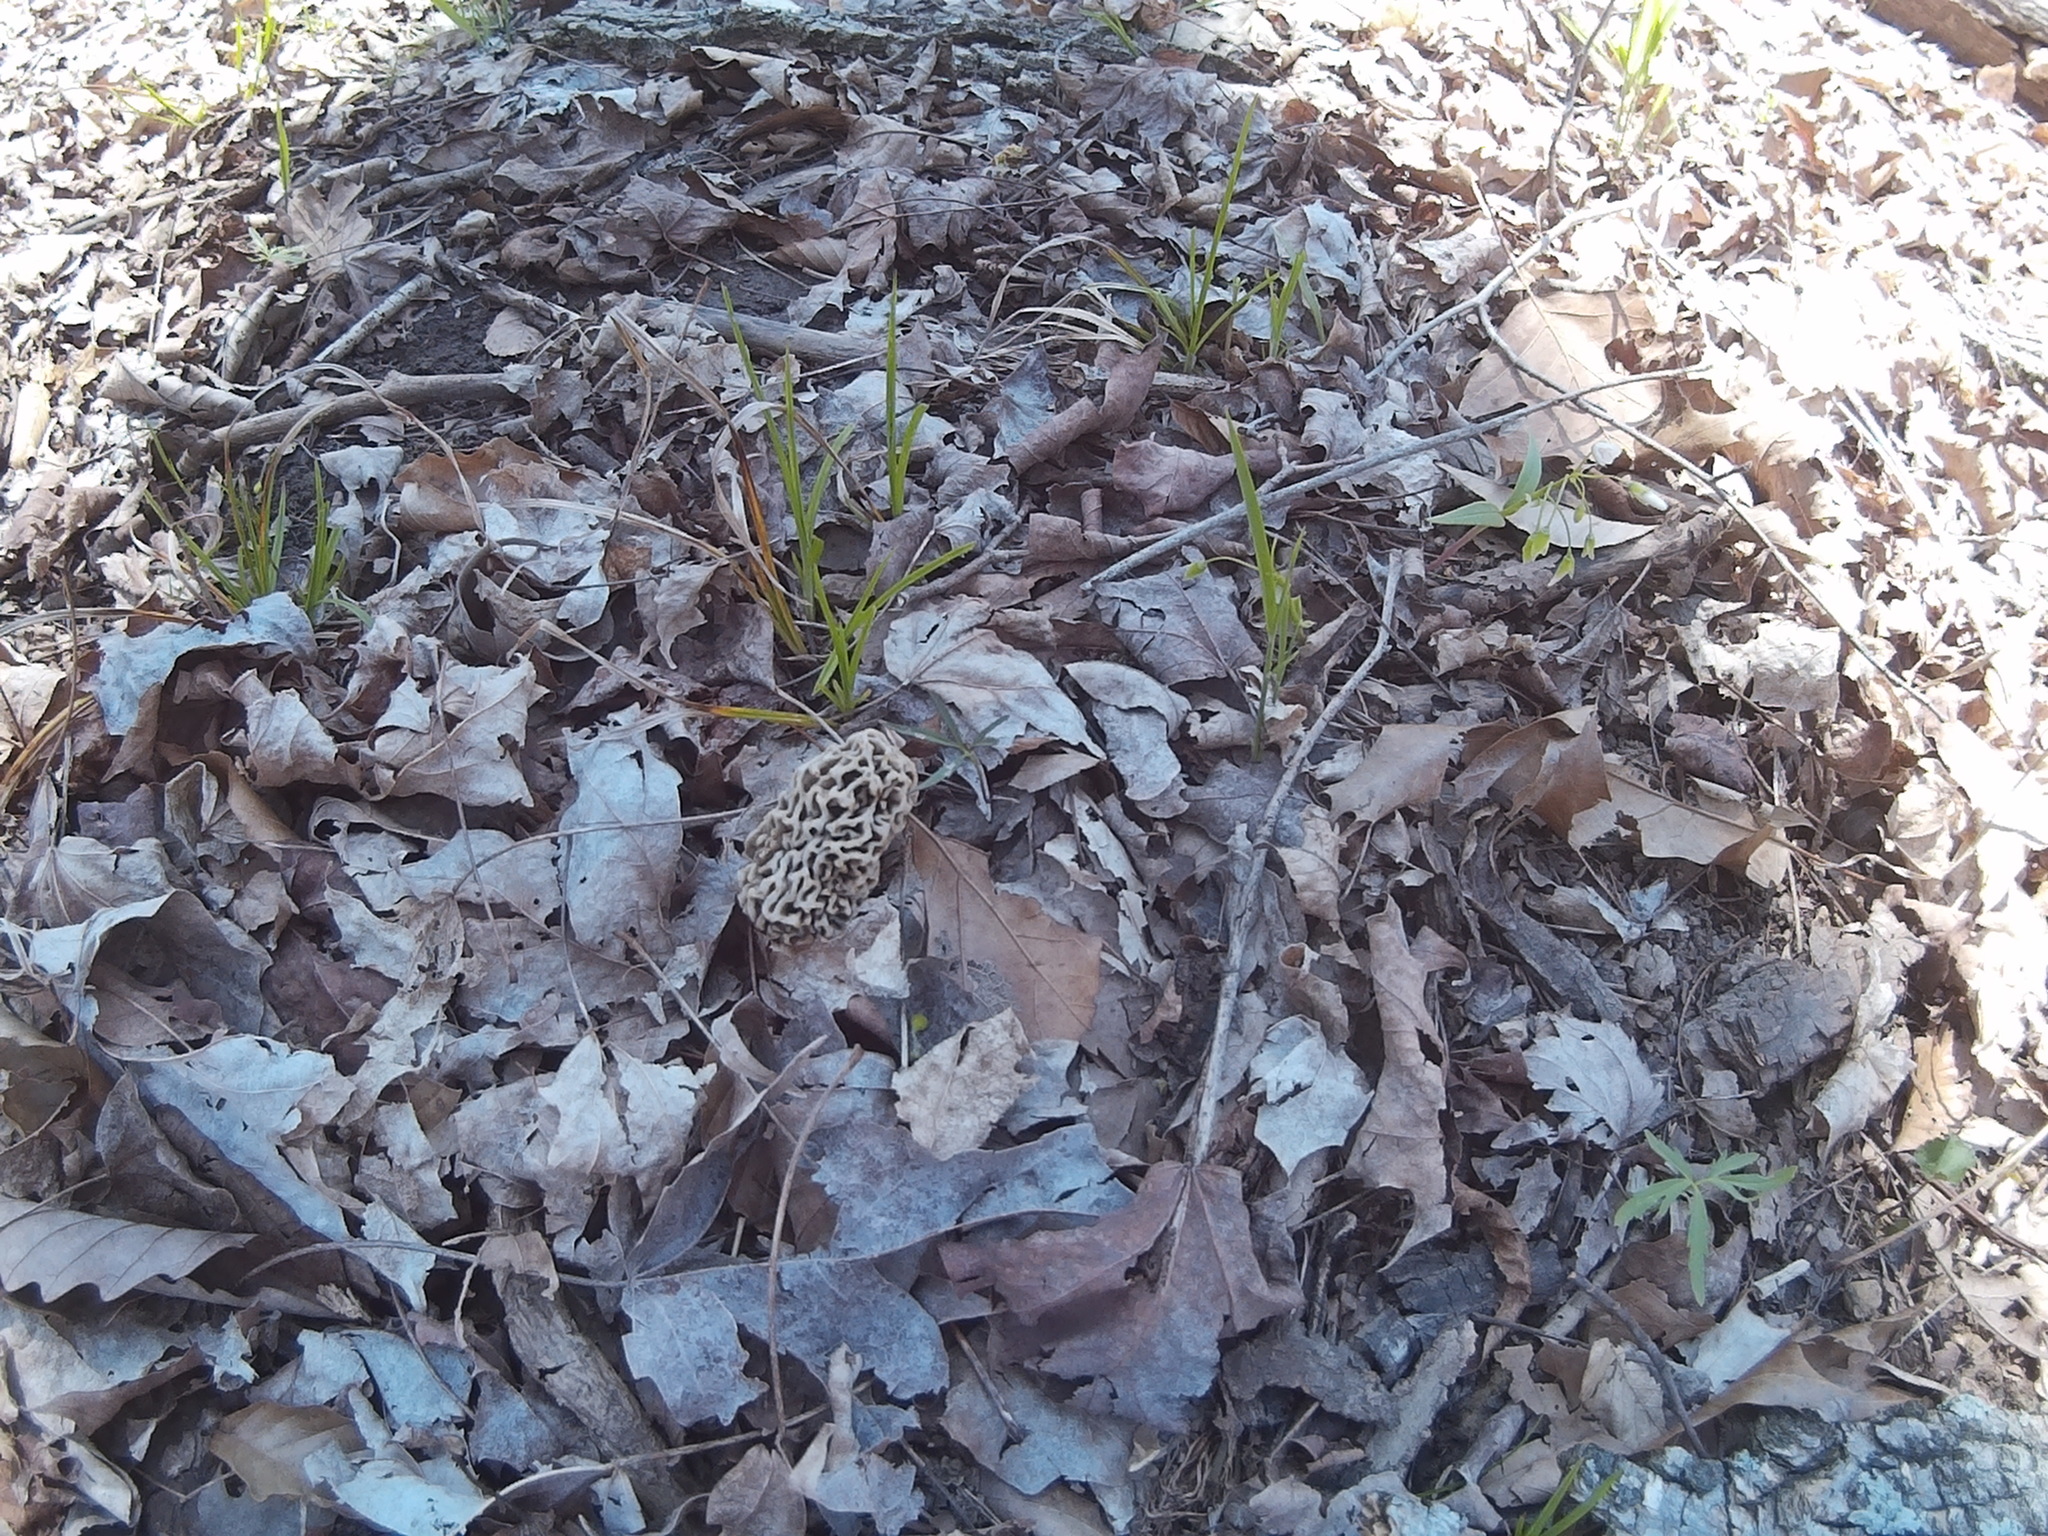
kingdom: Fungi
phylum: Ascomycota
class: Pezizomycetes
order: Pezizales
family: Morchellaceae
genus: Morchella
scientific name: Morchella americana
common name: White morel
